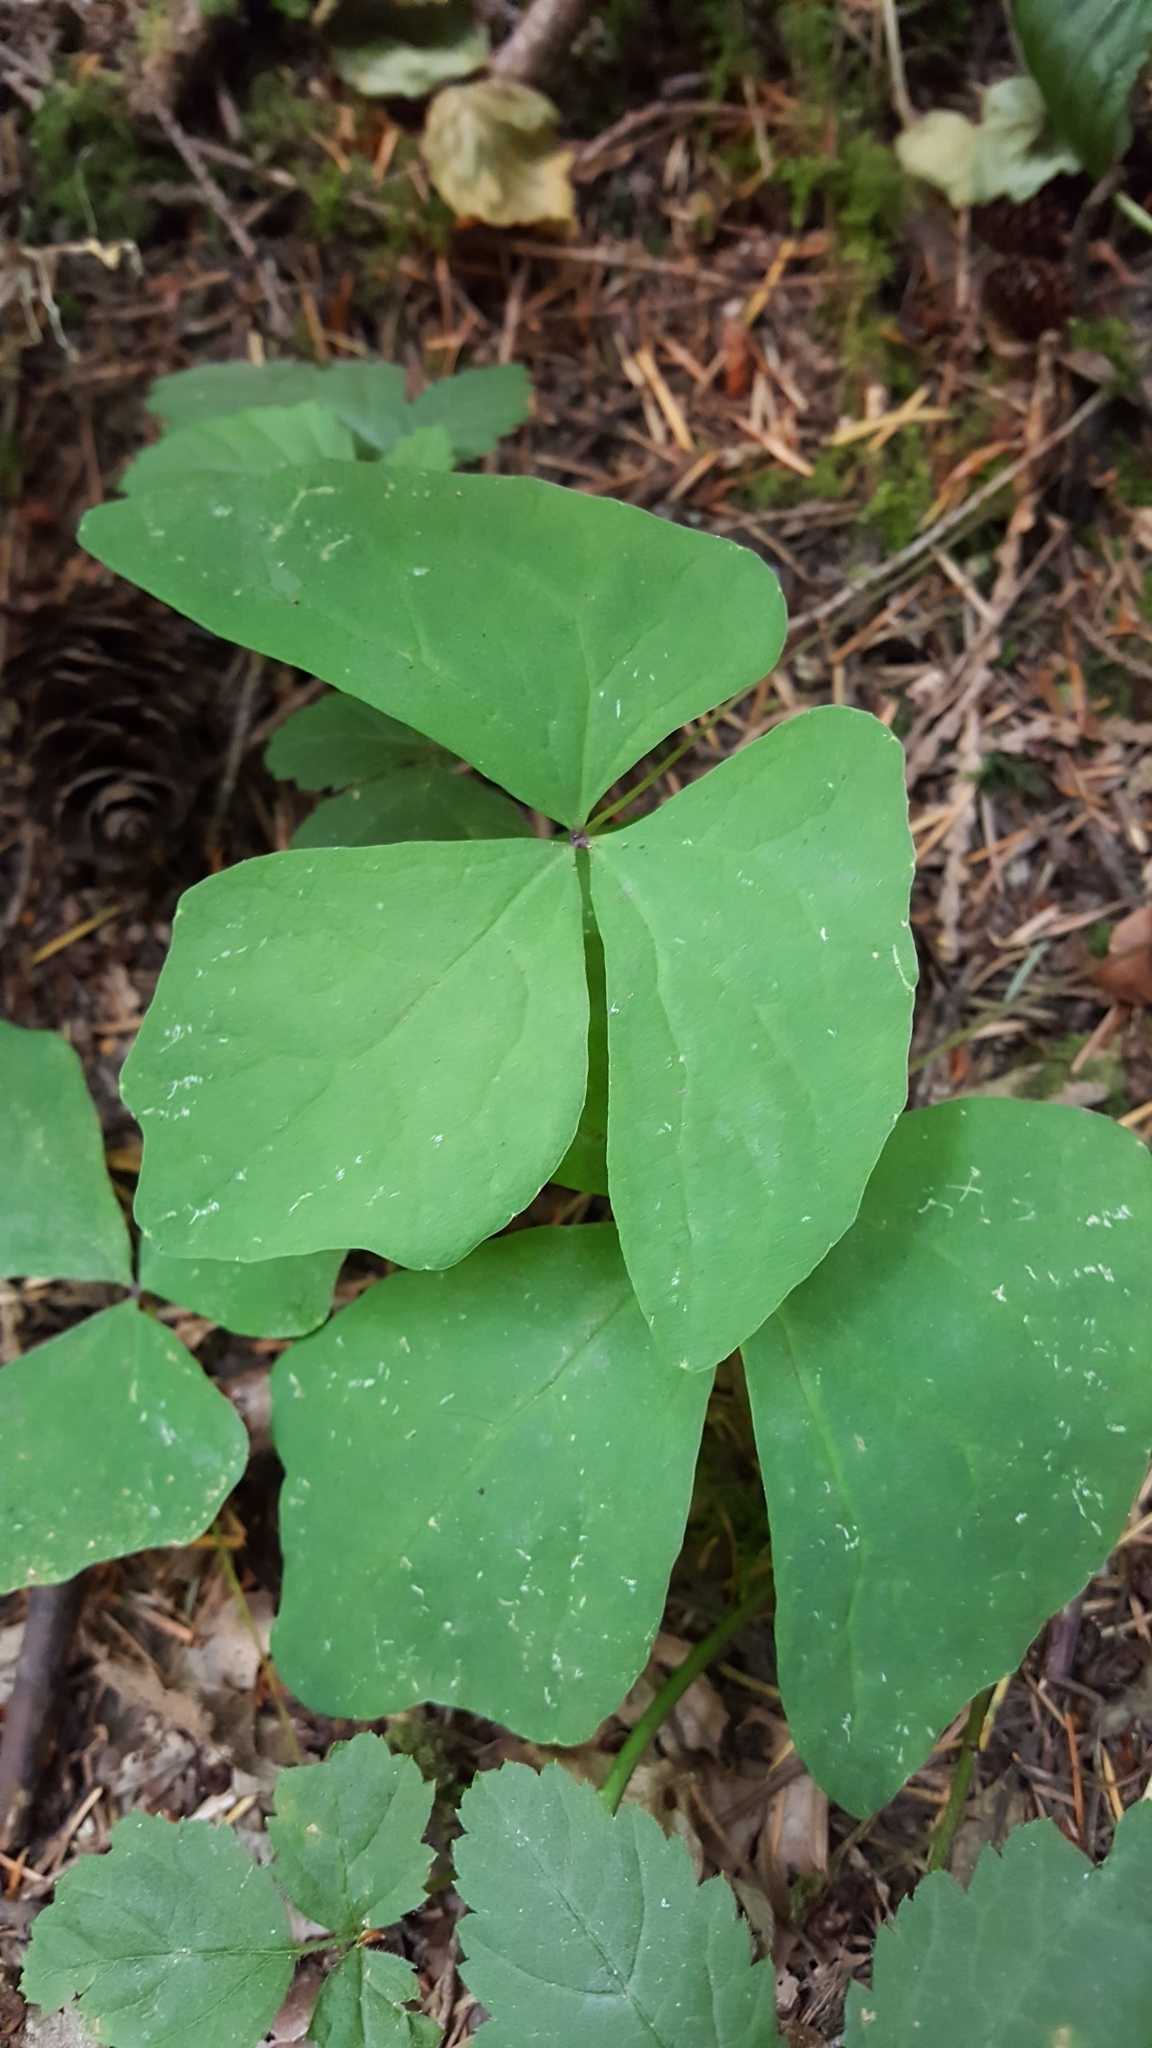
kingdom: Plantae
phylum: Tracheophyta
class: Magnoliopsida
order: Ranunculales
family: Berberidaceae
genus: Achlys
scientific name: Achlys triphylla
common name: Vanilla-leaf
